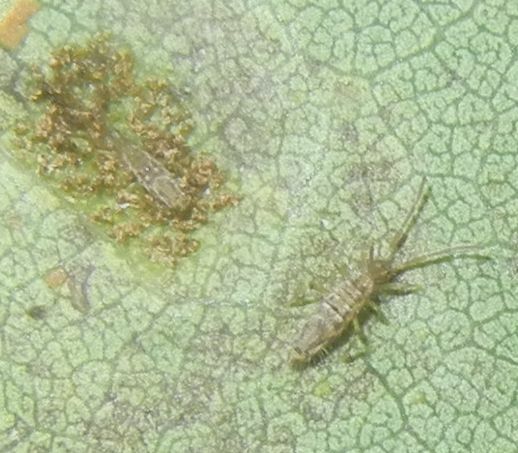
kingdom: Animalia
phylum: Arthropoda
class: Collembola
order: Entomobryomorpha
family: Entomobryidae
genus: Entomobrya
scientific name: Entomobrya intermedia
